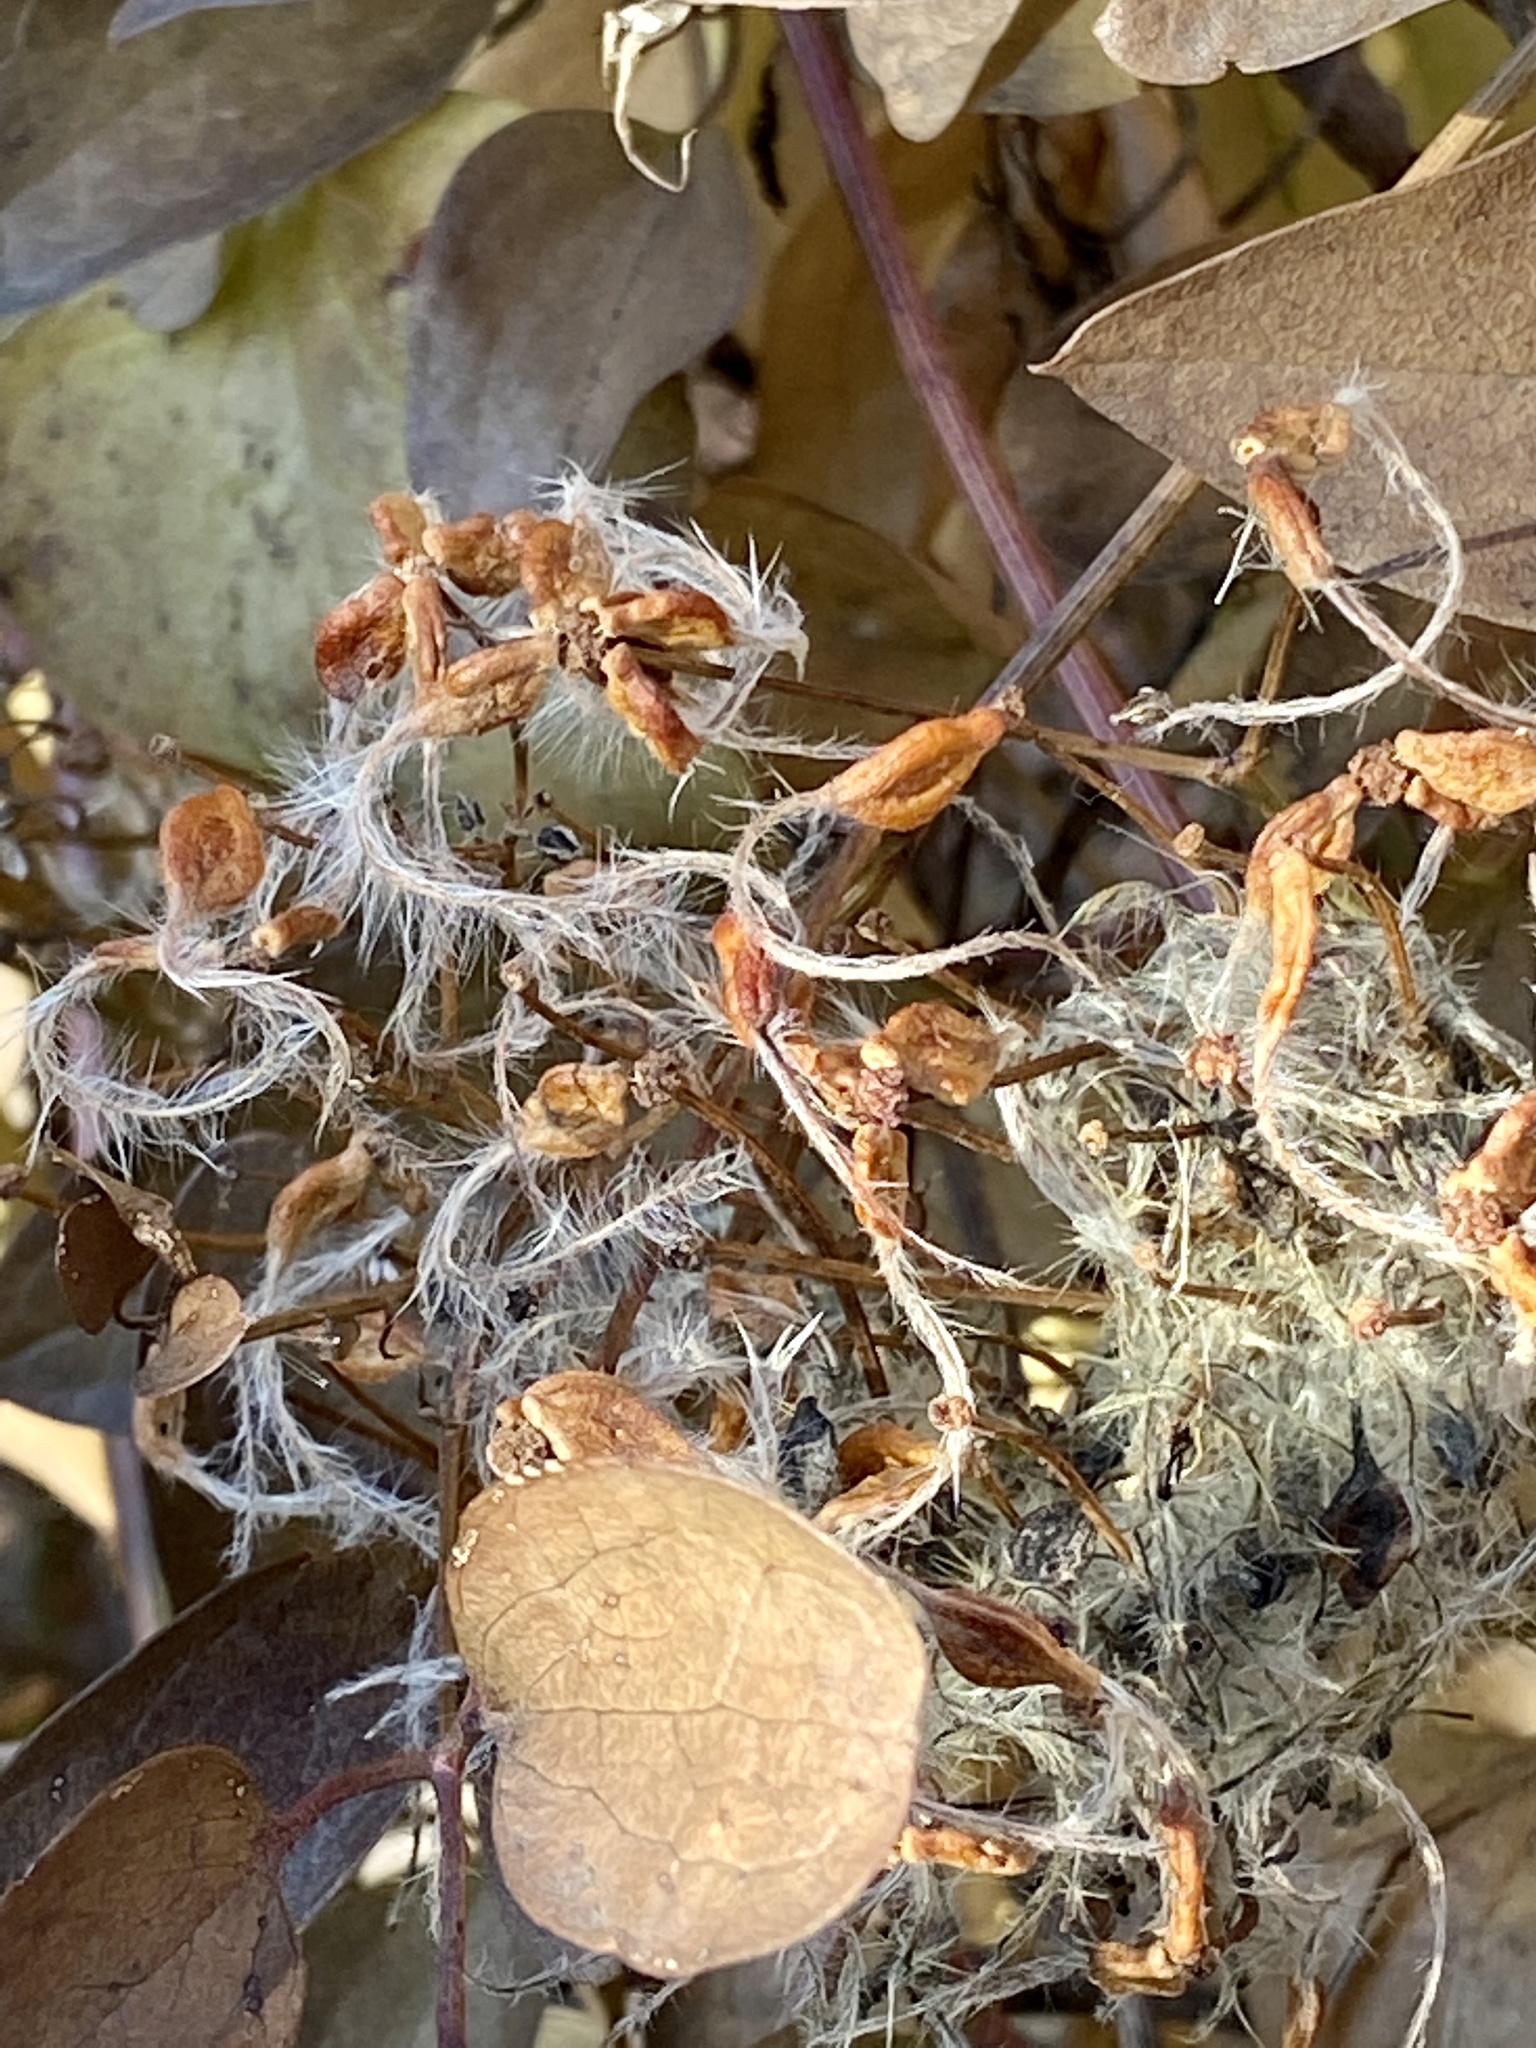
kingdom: Plantae
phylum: Tracheophyta
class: Magnoliopsida
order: Ranunculales
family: Ranunculaceae
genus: Clematis
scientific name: Clematis terniflora
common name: Sweet autumn clematis
